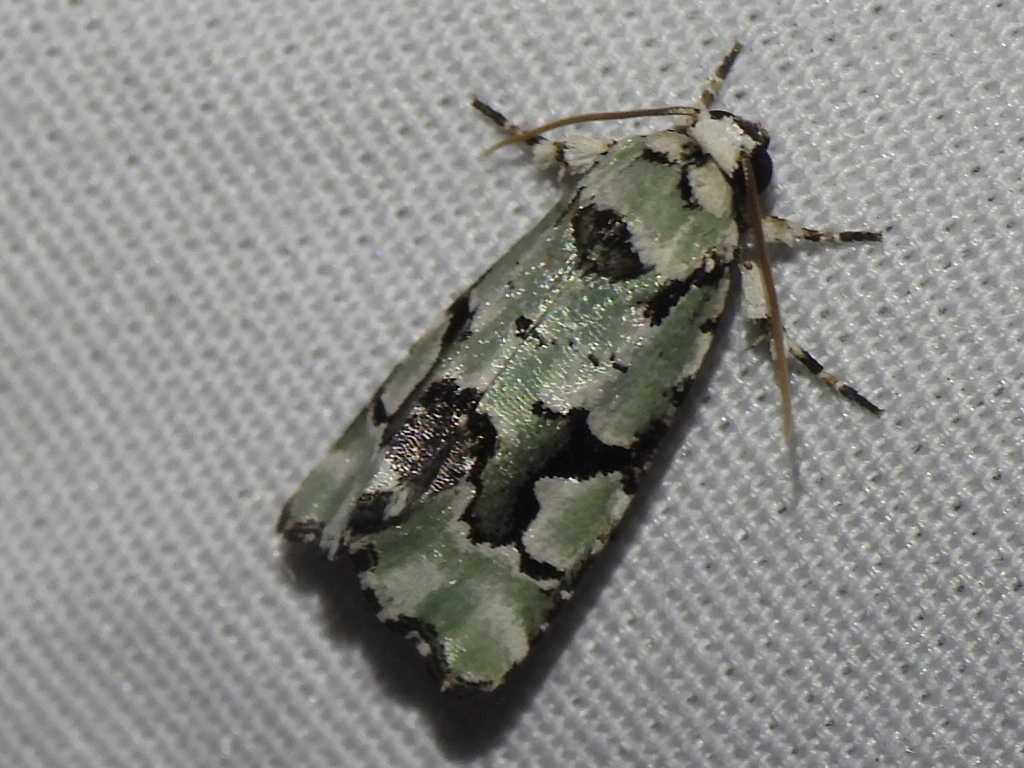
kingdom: Animalia
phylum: Arthropoda
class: Insecta
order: Lepidoptera
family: Noctuidae
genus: Emarginea
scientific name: Emarginea percara
